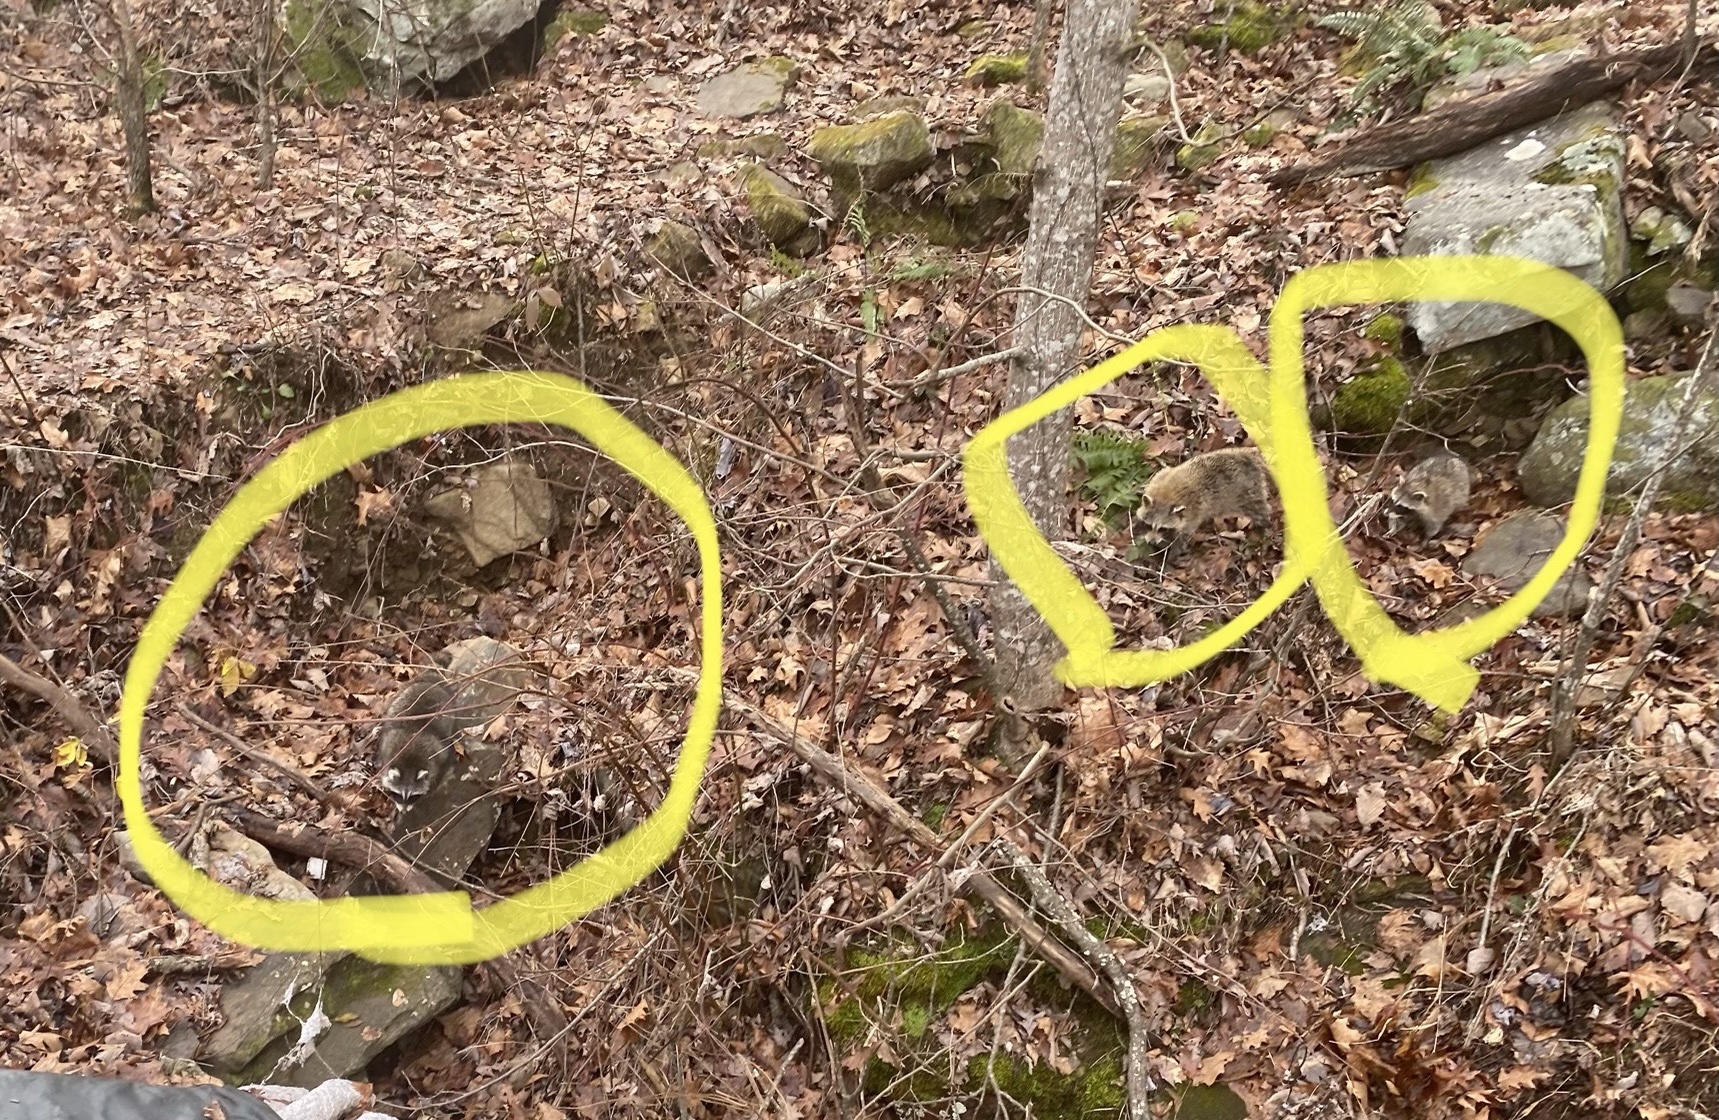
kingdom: Animalia
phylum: Chordata
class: Mammalia
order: Carnivora
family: Procyonidae
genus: Procyon
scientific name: Procyon lotor
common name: Raccoon
